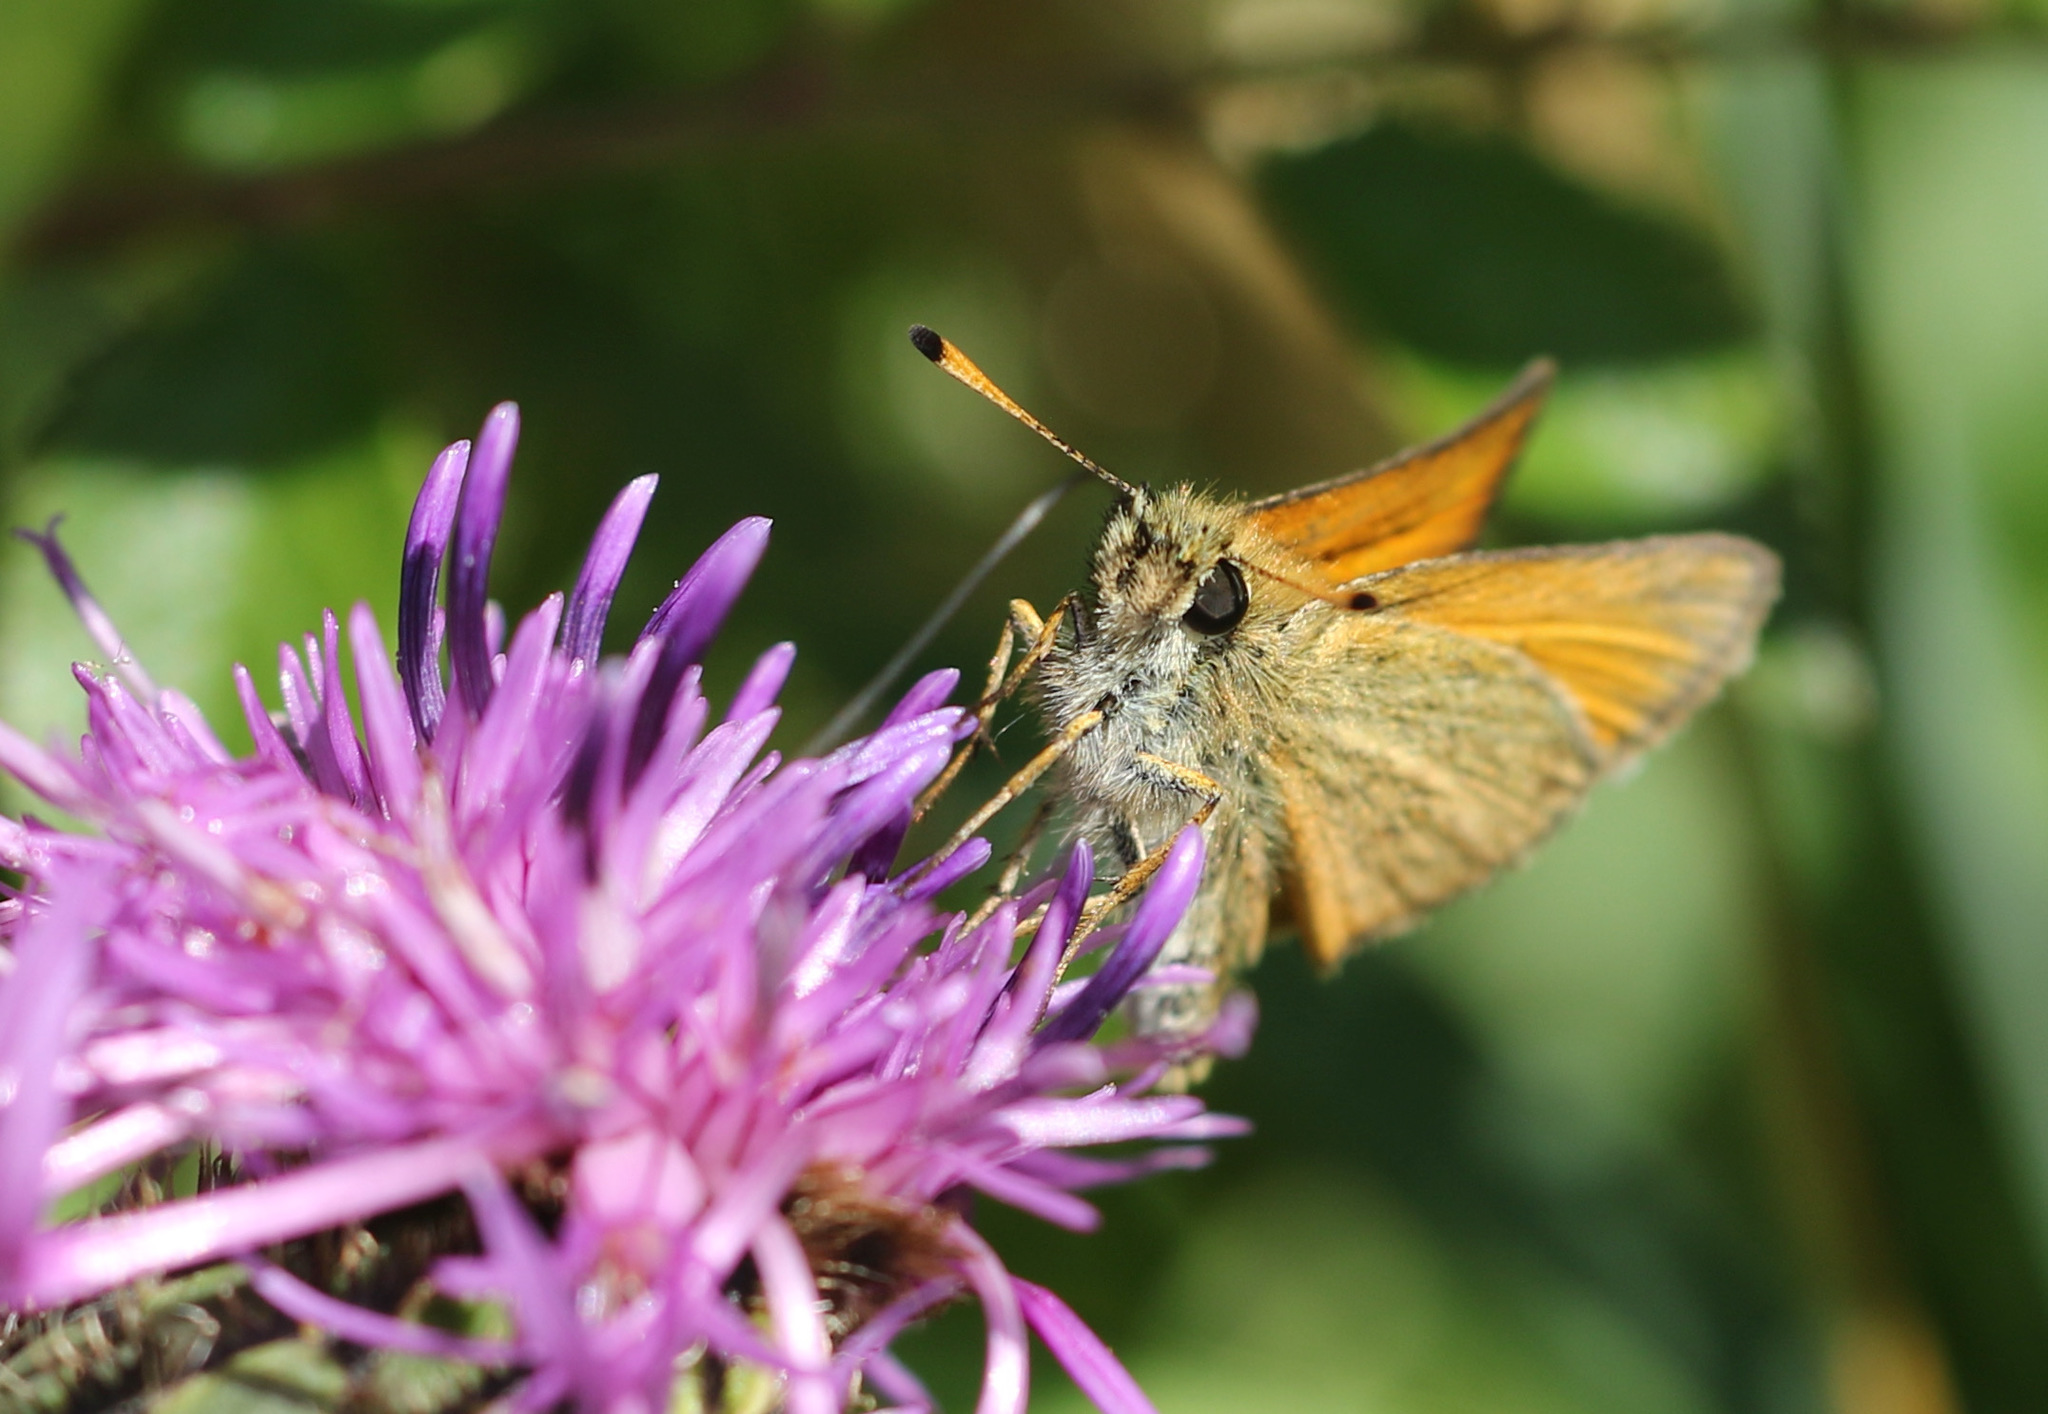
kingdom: Animalia
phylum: Arthropoda
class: Insecta
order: Lepidoptera
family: Hesperiidae
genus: Thymelicus
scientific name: Thymelicus lineola
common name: Essex skipper
